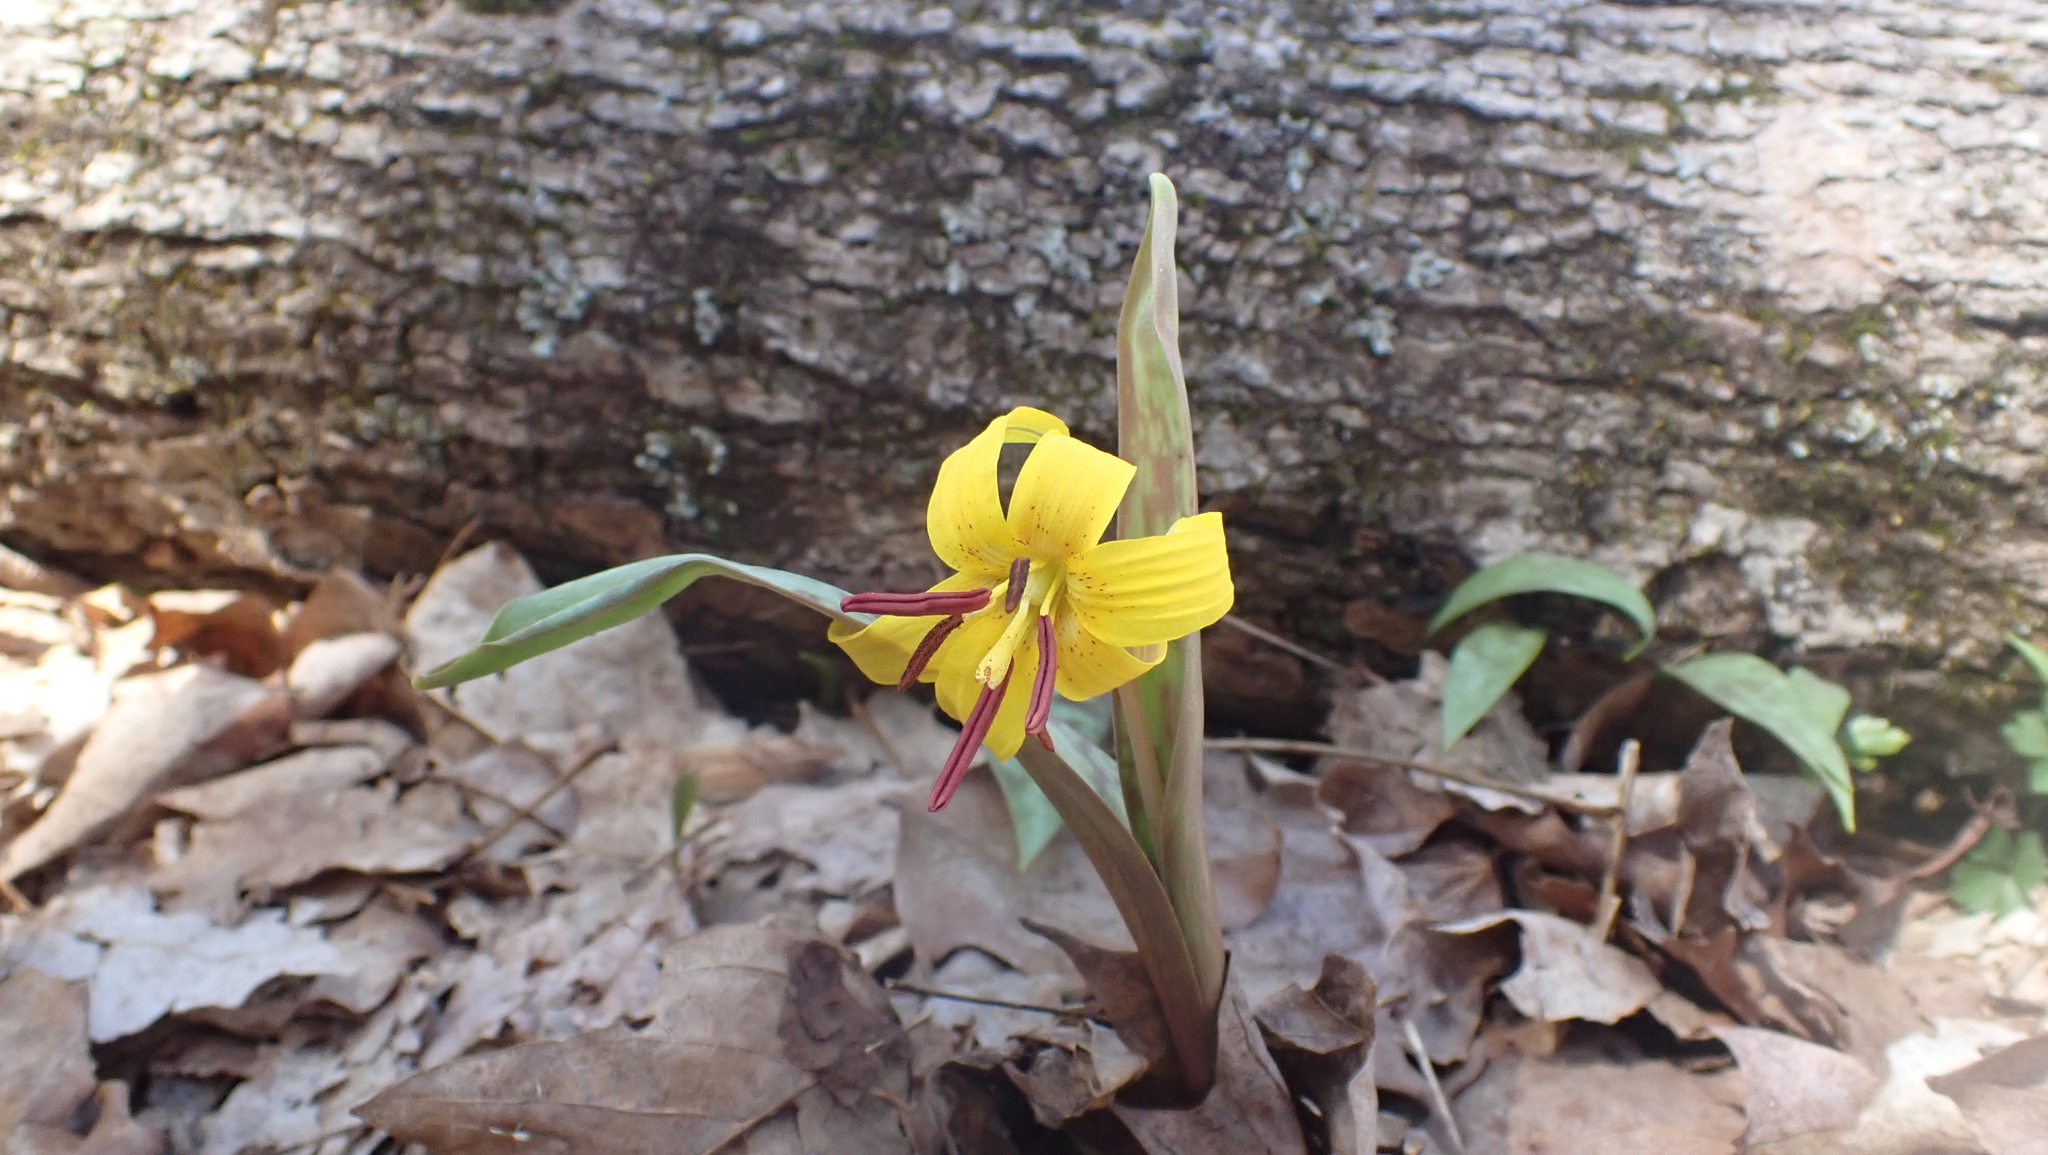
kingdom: Plantae
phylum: Tracheophyta
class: Liliopsida
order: Liliales
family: Liliaceae
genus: Erythronium
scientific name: Erythronium americanum
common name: Yellow adder's-tongue
